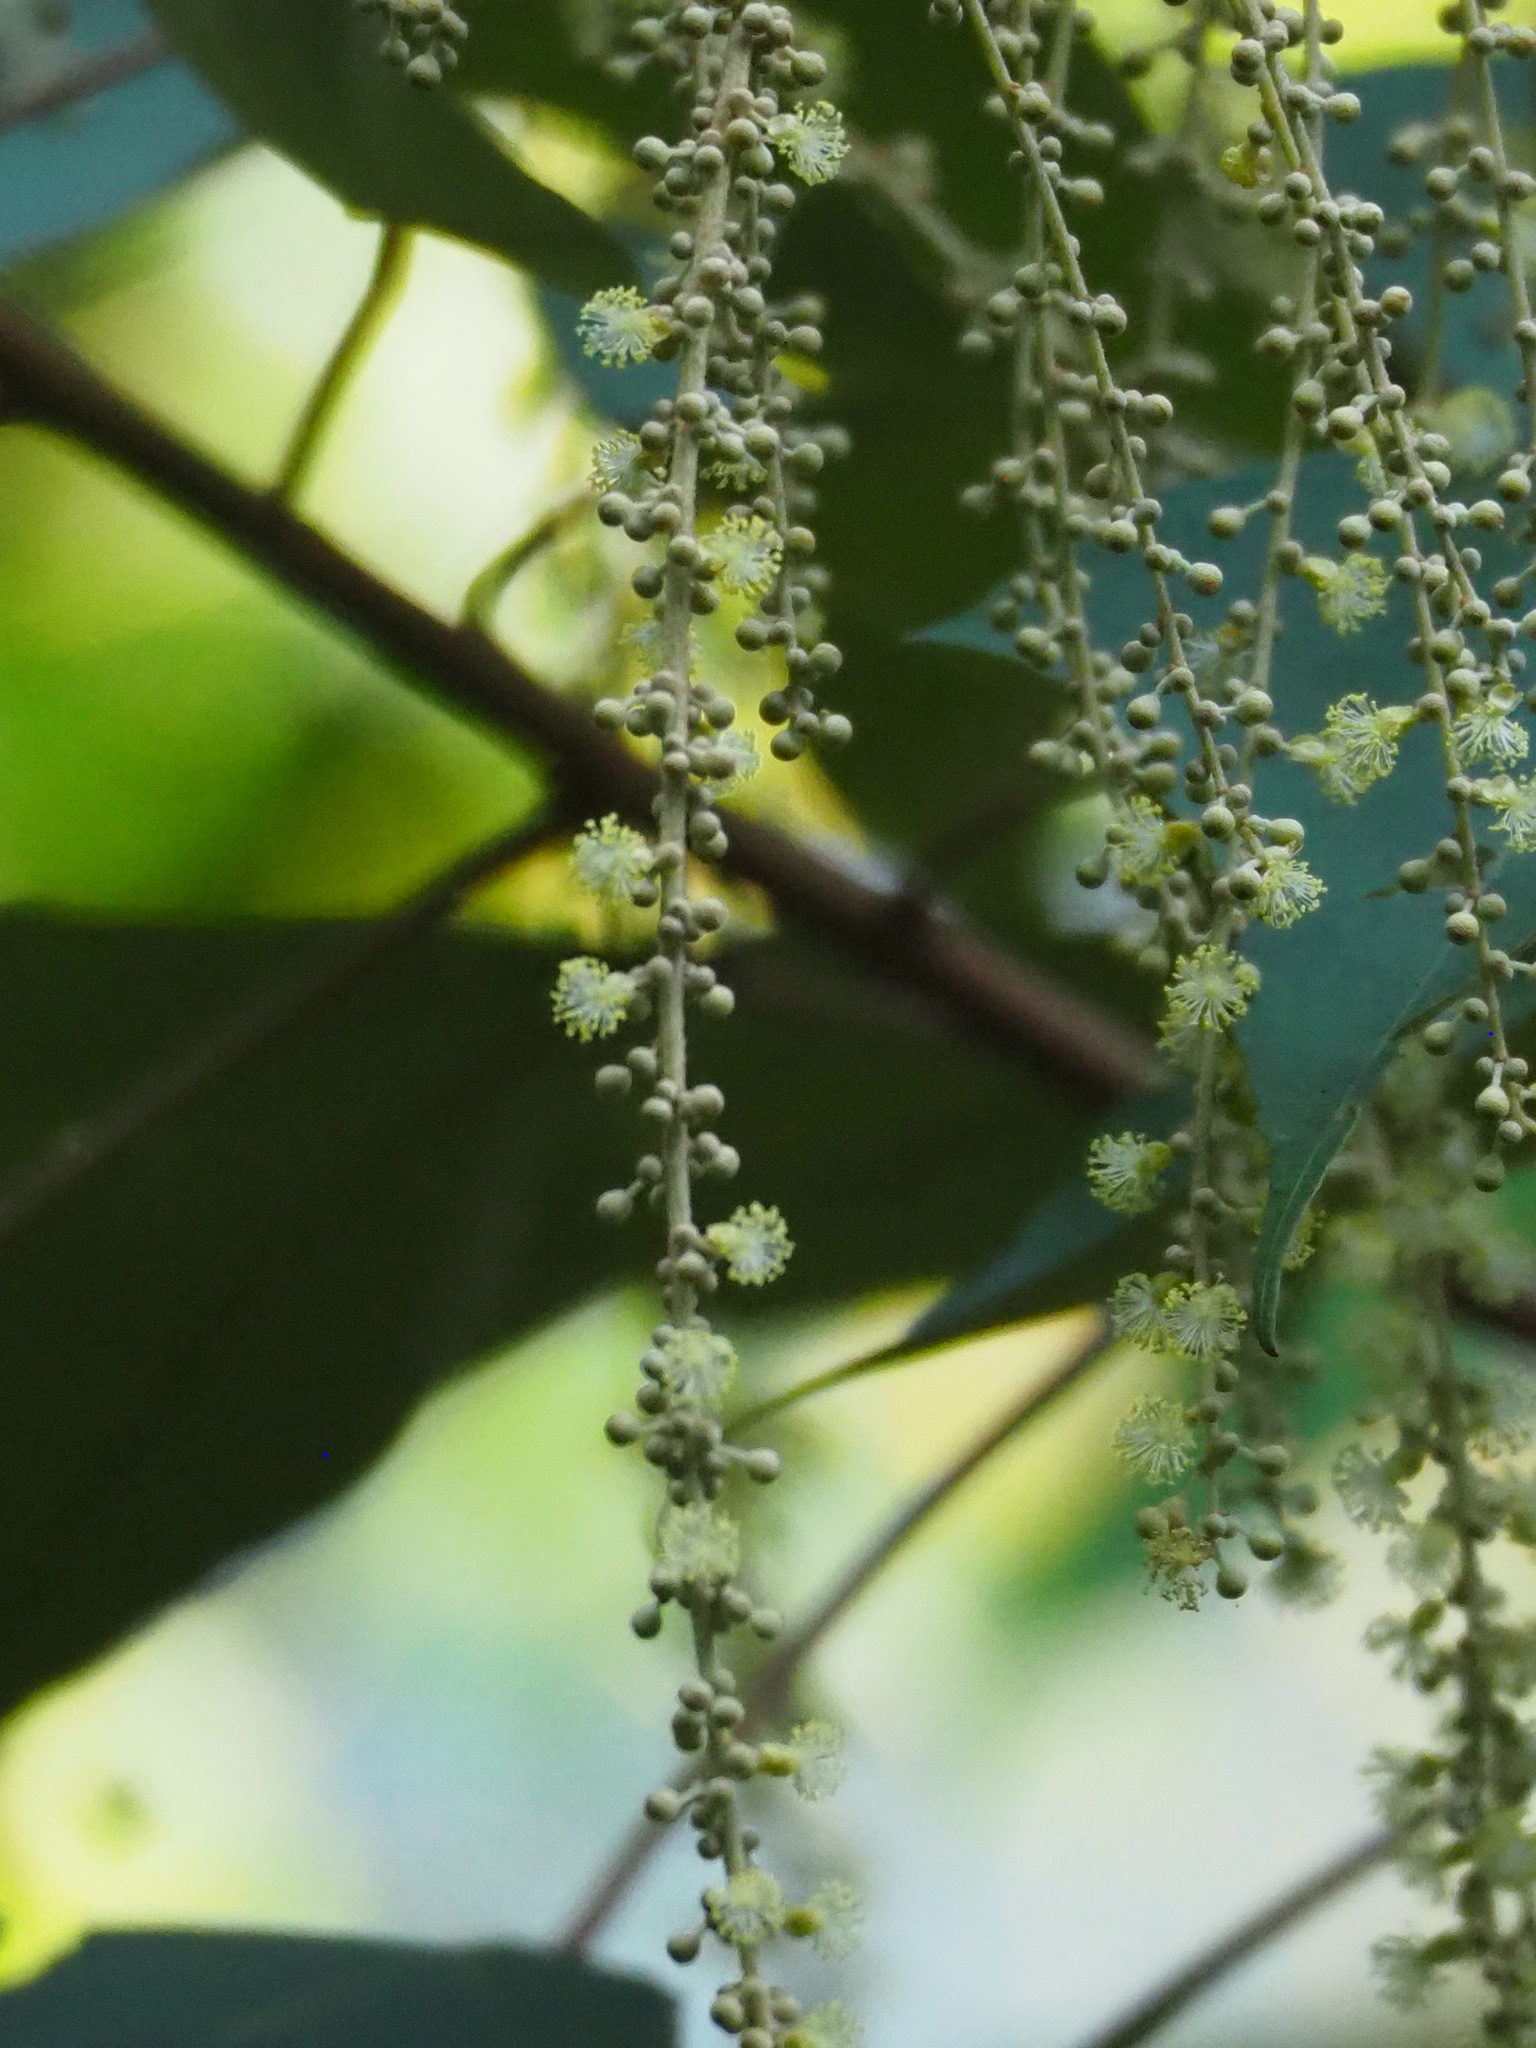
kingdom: Plantae
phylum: Tracheophyta
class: Magnoliopsida
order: Malpighiales
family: Euphorbiaceae
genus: Mallotus
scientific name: Mallotus paniculatus
